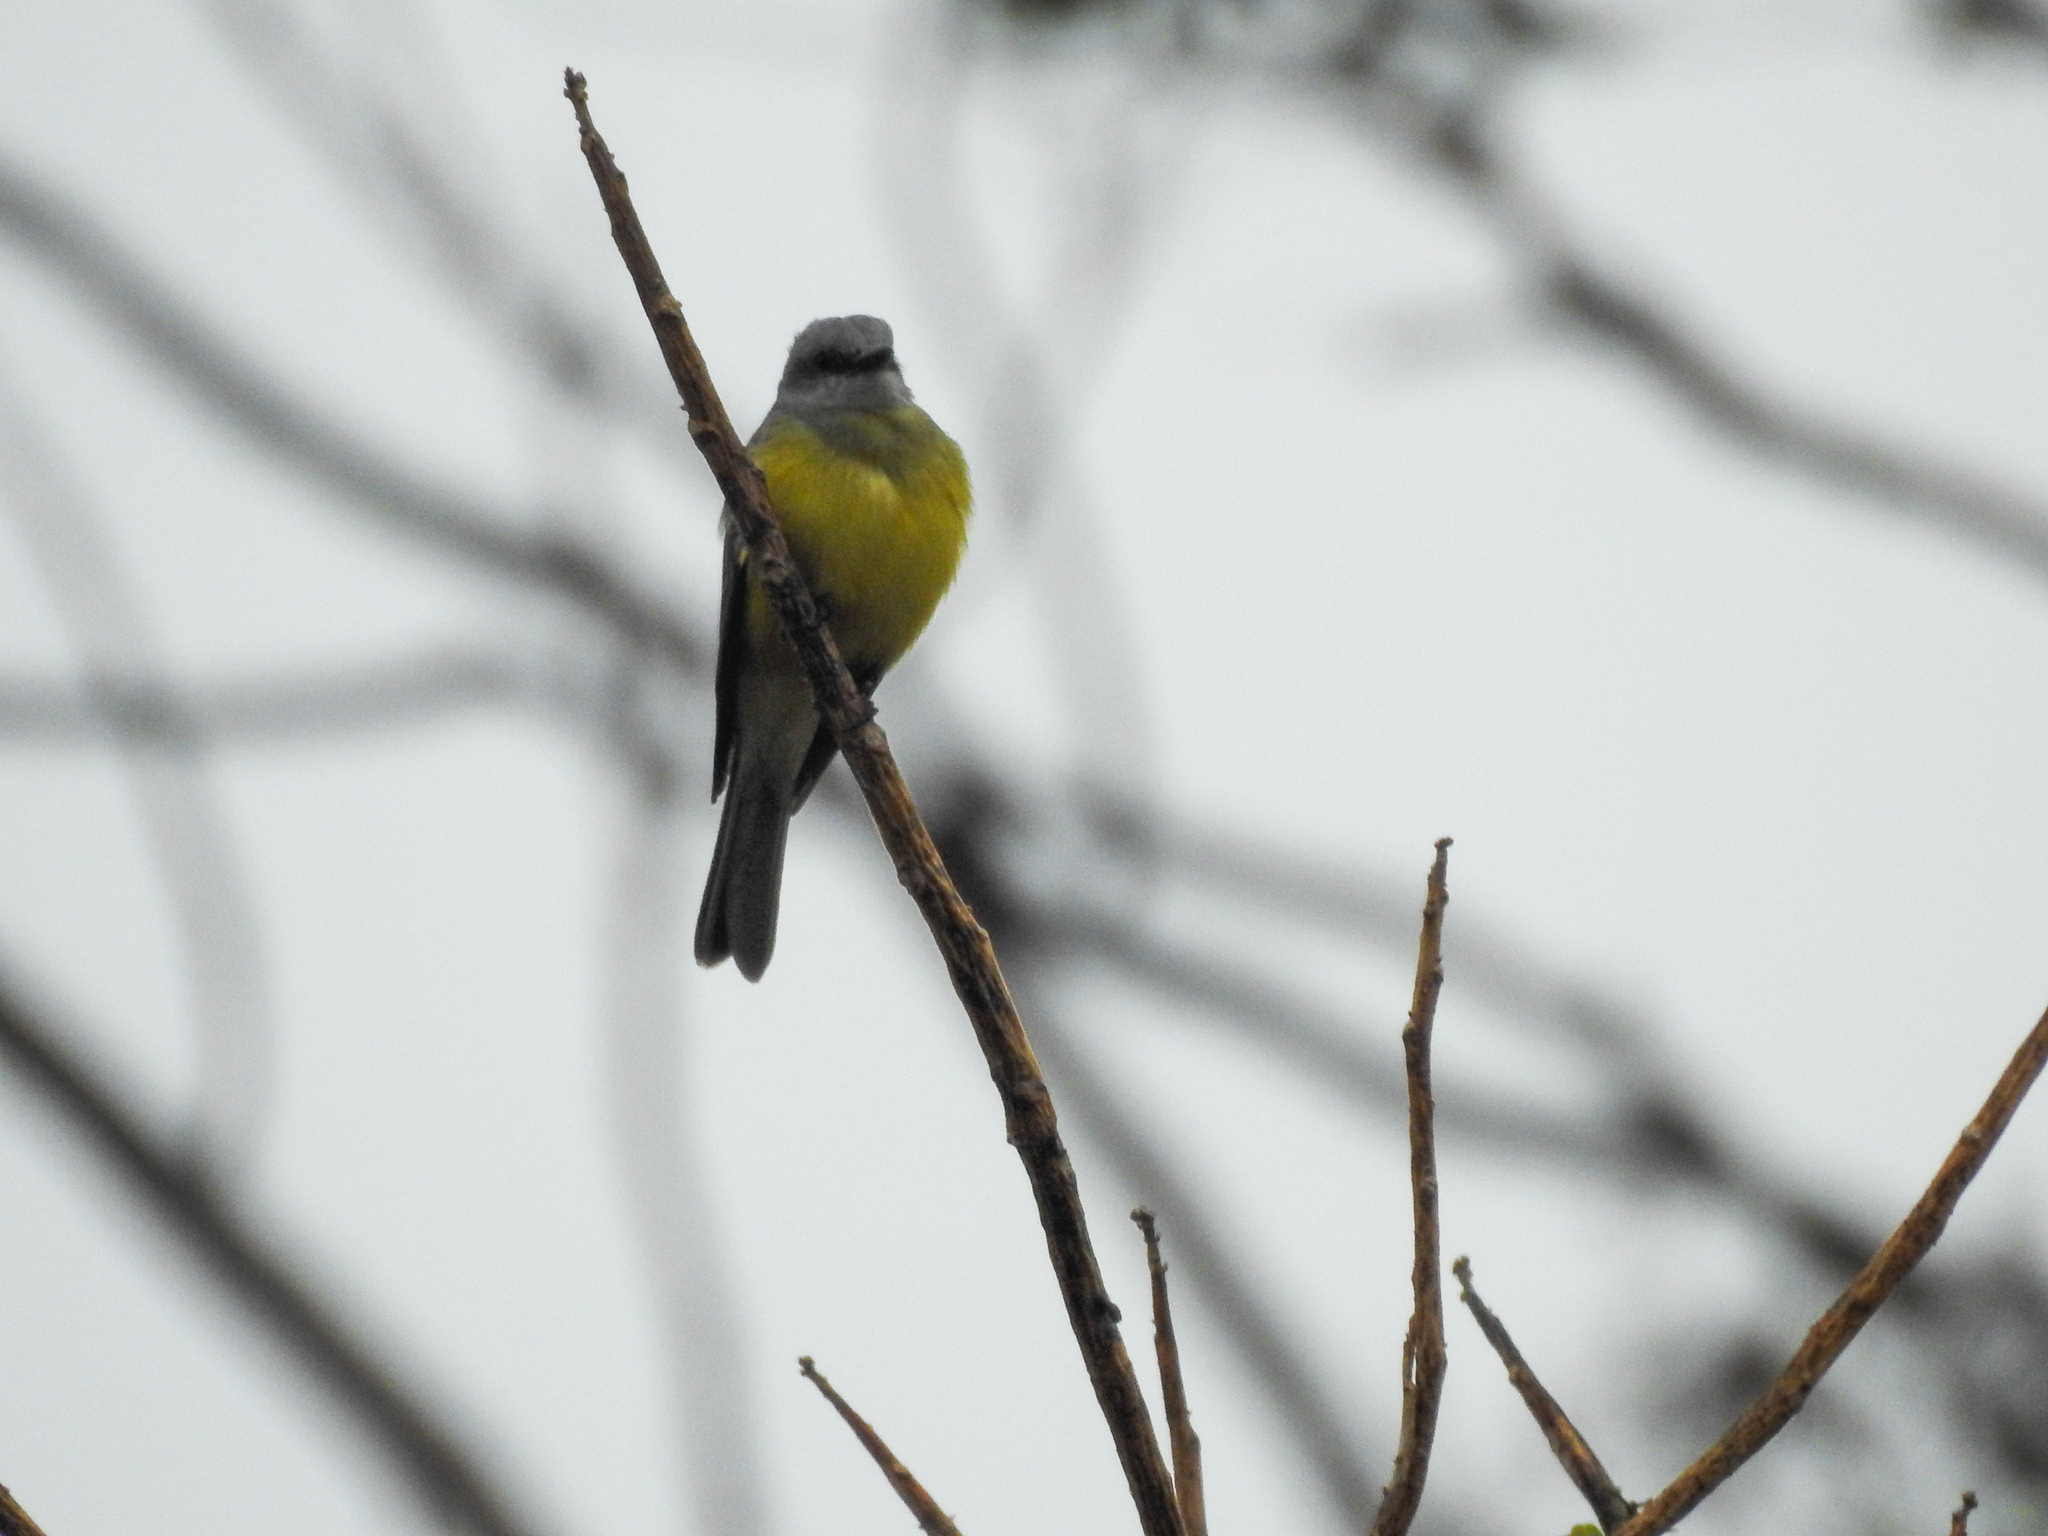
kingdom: Animalia
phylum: Chordata
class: Aves
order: Passeriformes
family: Tyrannidae
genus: Tyrannus
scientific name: Tyrannus melancholicus
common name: Tropical kingbird
